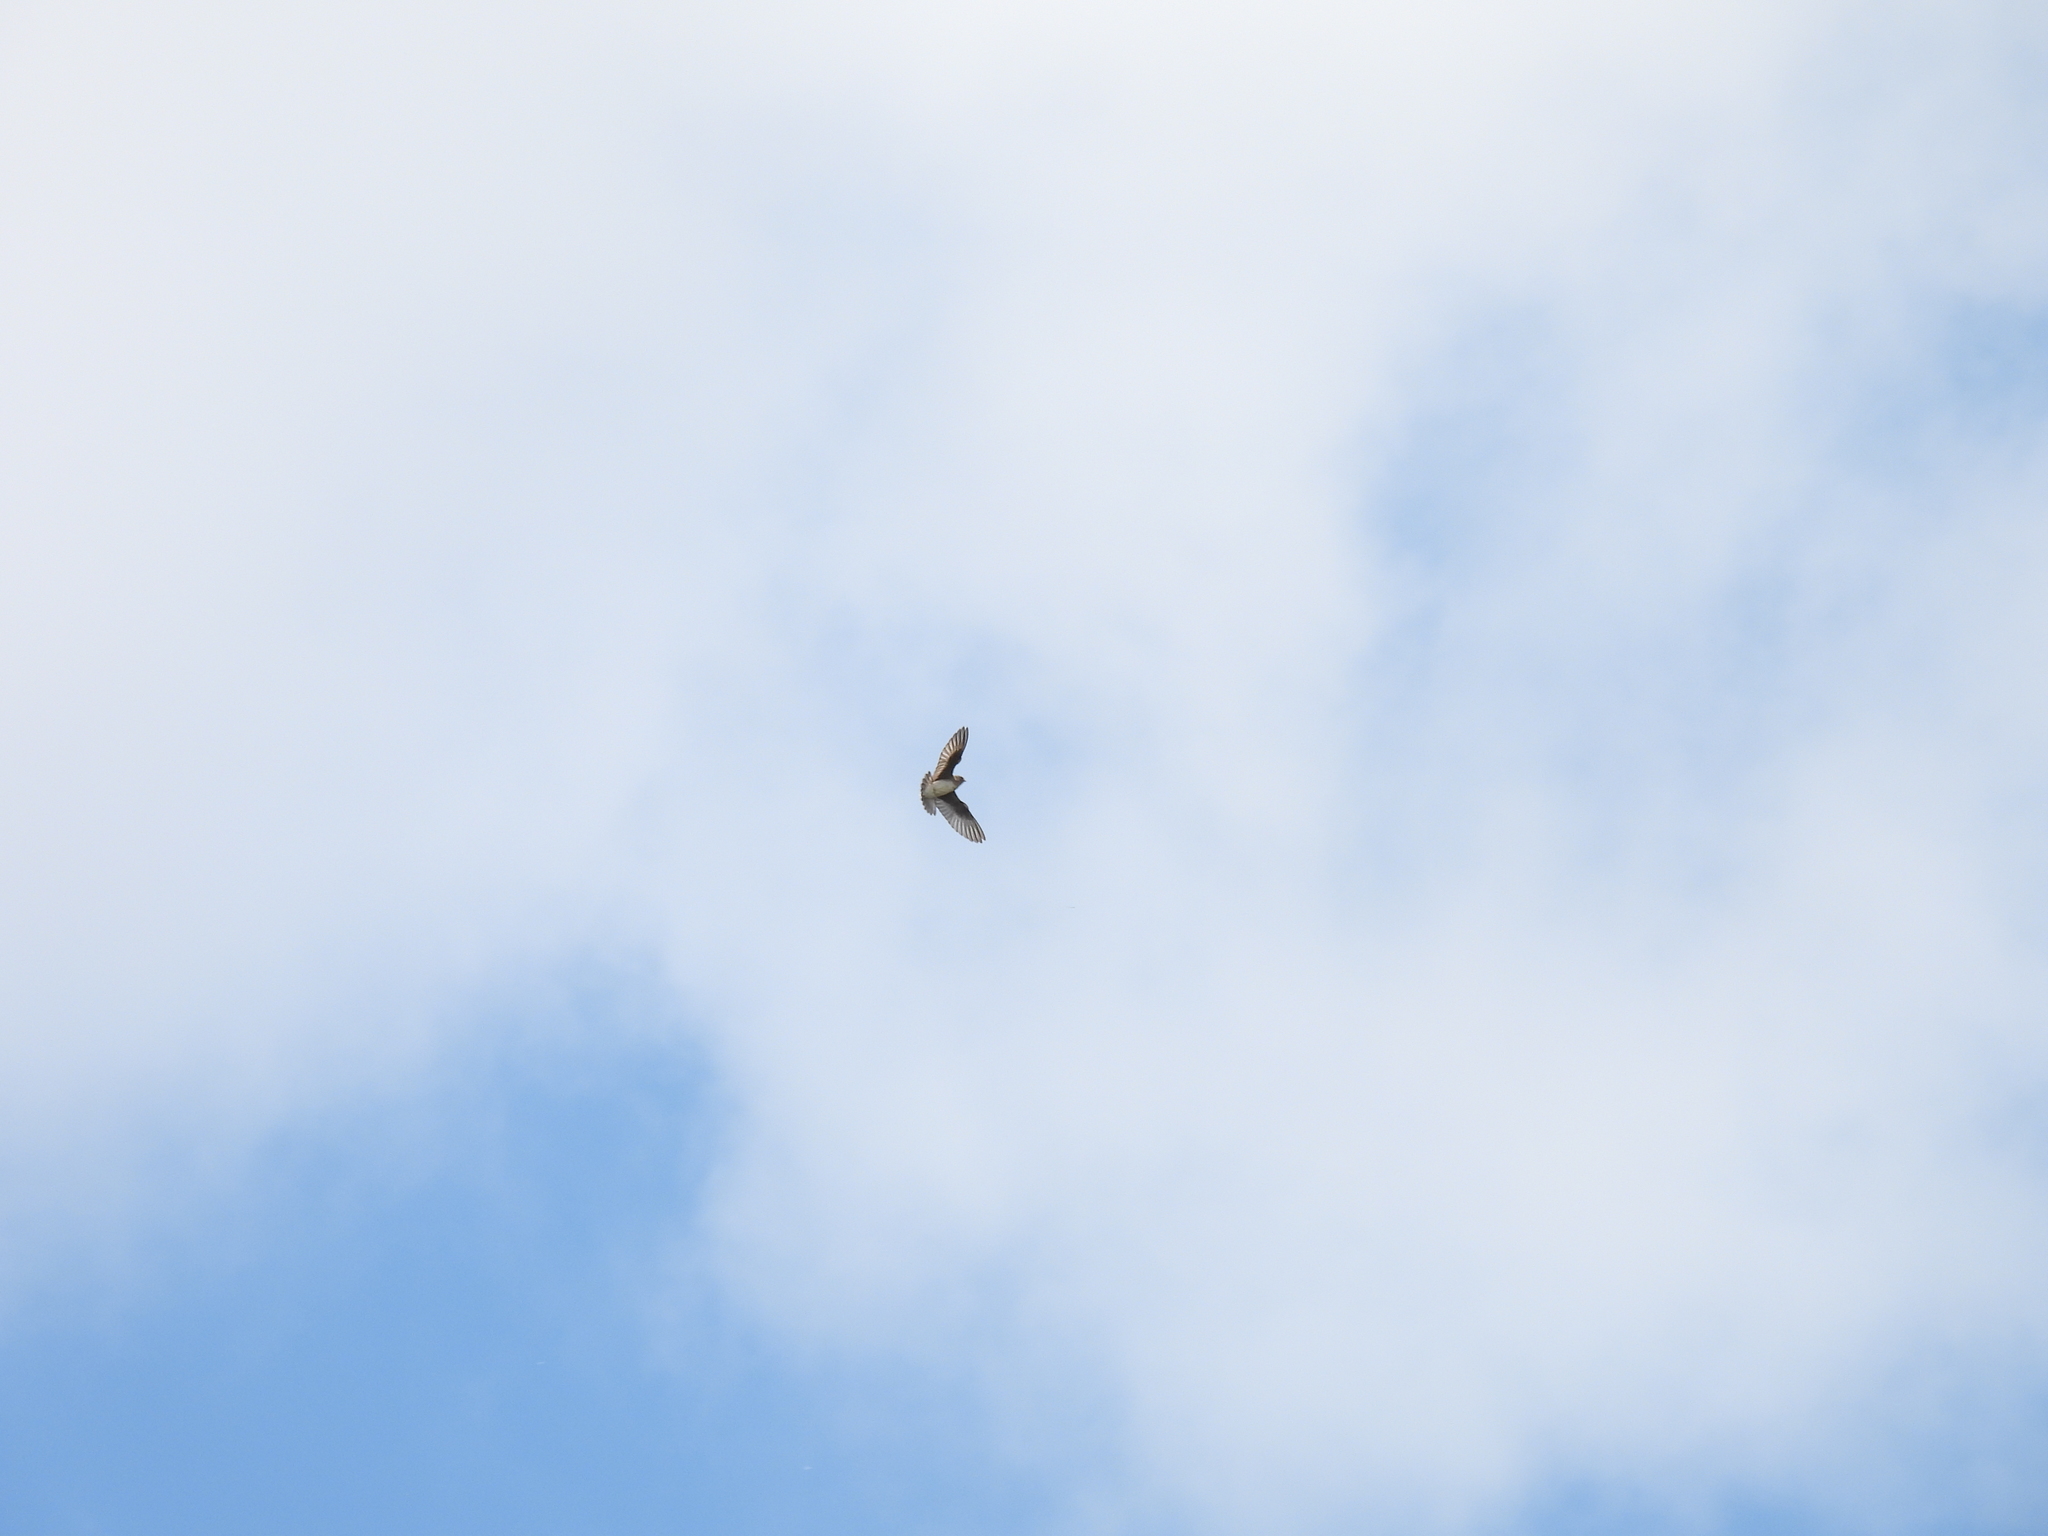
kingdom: Animalia
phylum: Chordata
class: Aves
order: Passeriformes
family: Hirundinidae
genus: Stelgidopteryx
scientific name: Stelgidopteryx serripennis
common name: Northern rough-winged swallow
